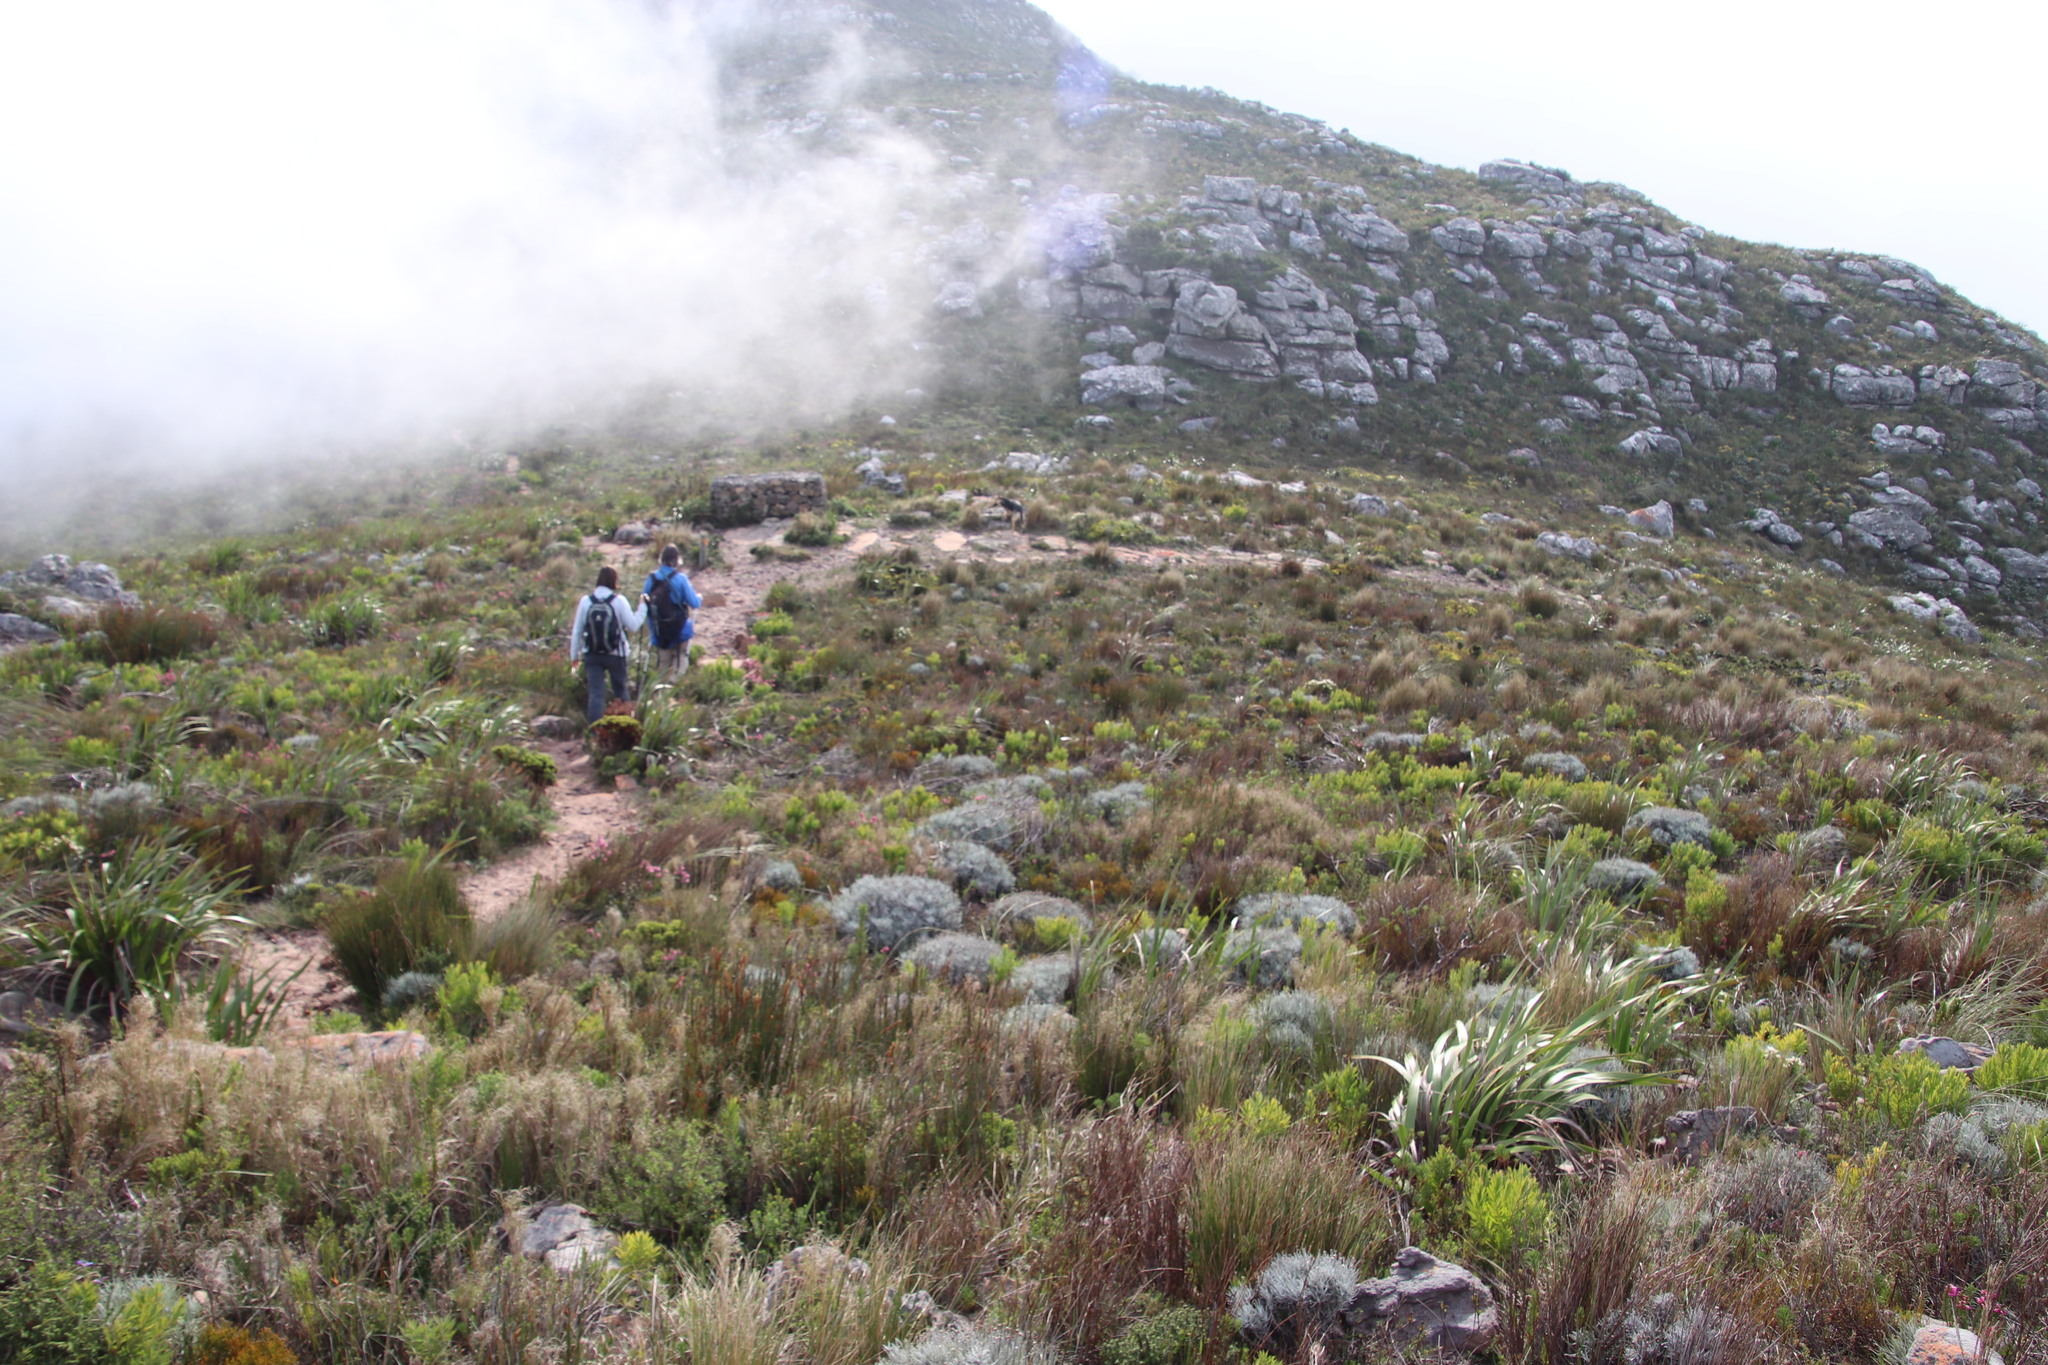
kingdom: Plantae
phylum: Tracheophyta
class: Magnoliopsida
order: Asterales
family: Asteraceae
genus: Syncarpha
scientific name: Syncarpha gnaphaloides
